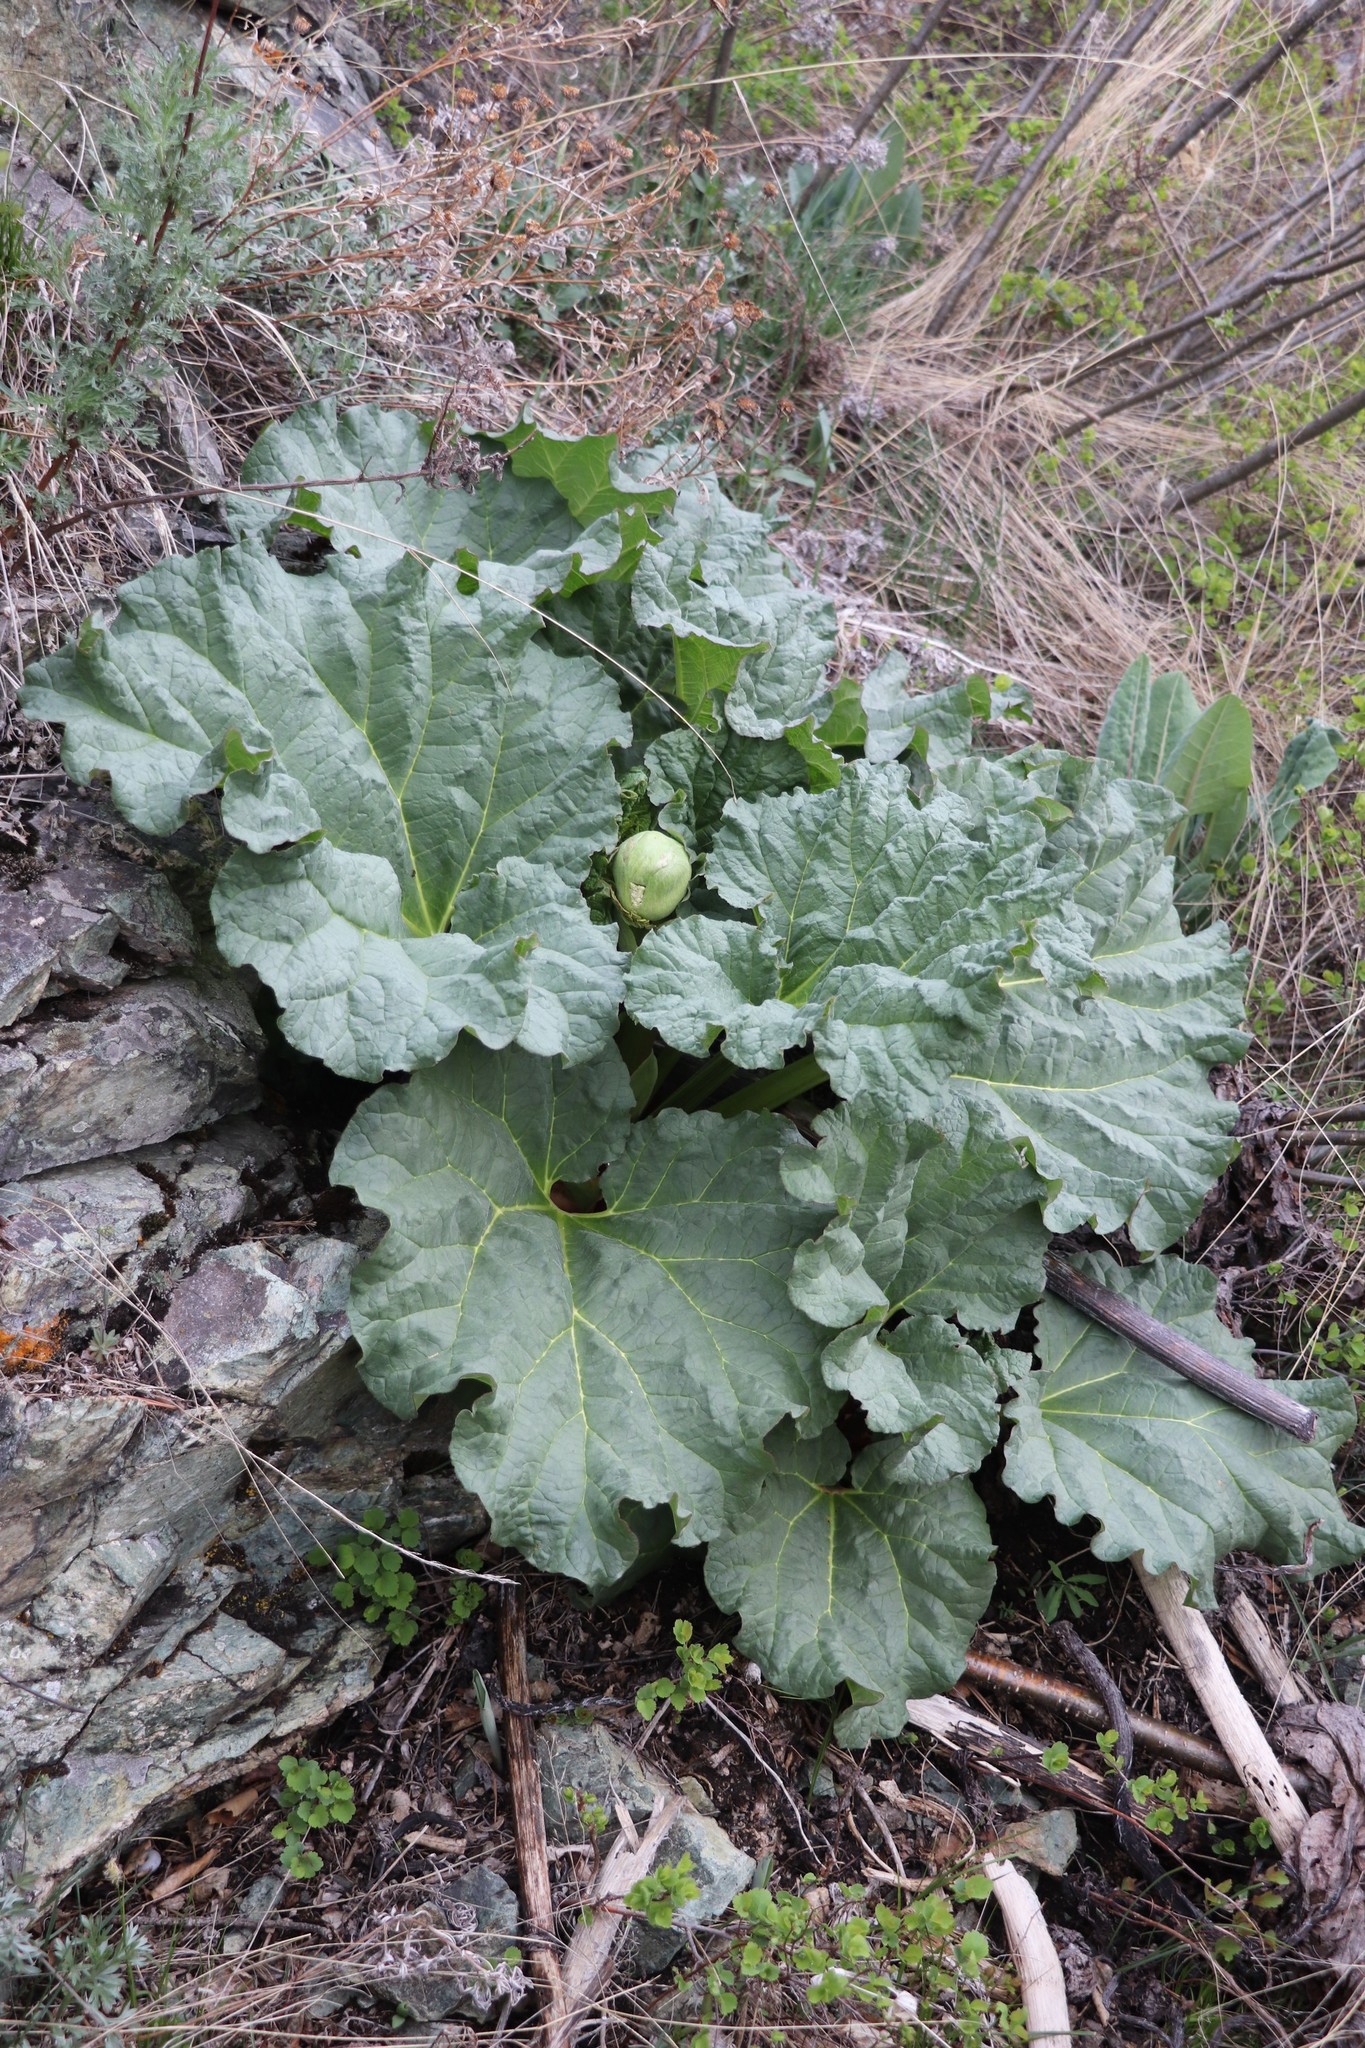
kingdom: Plantae
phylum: Tracheophyta
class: Magnoliopsida
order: Caryophyllales
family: Polygonaceae
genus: Rheum
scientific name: Rheum compactum
